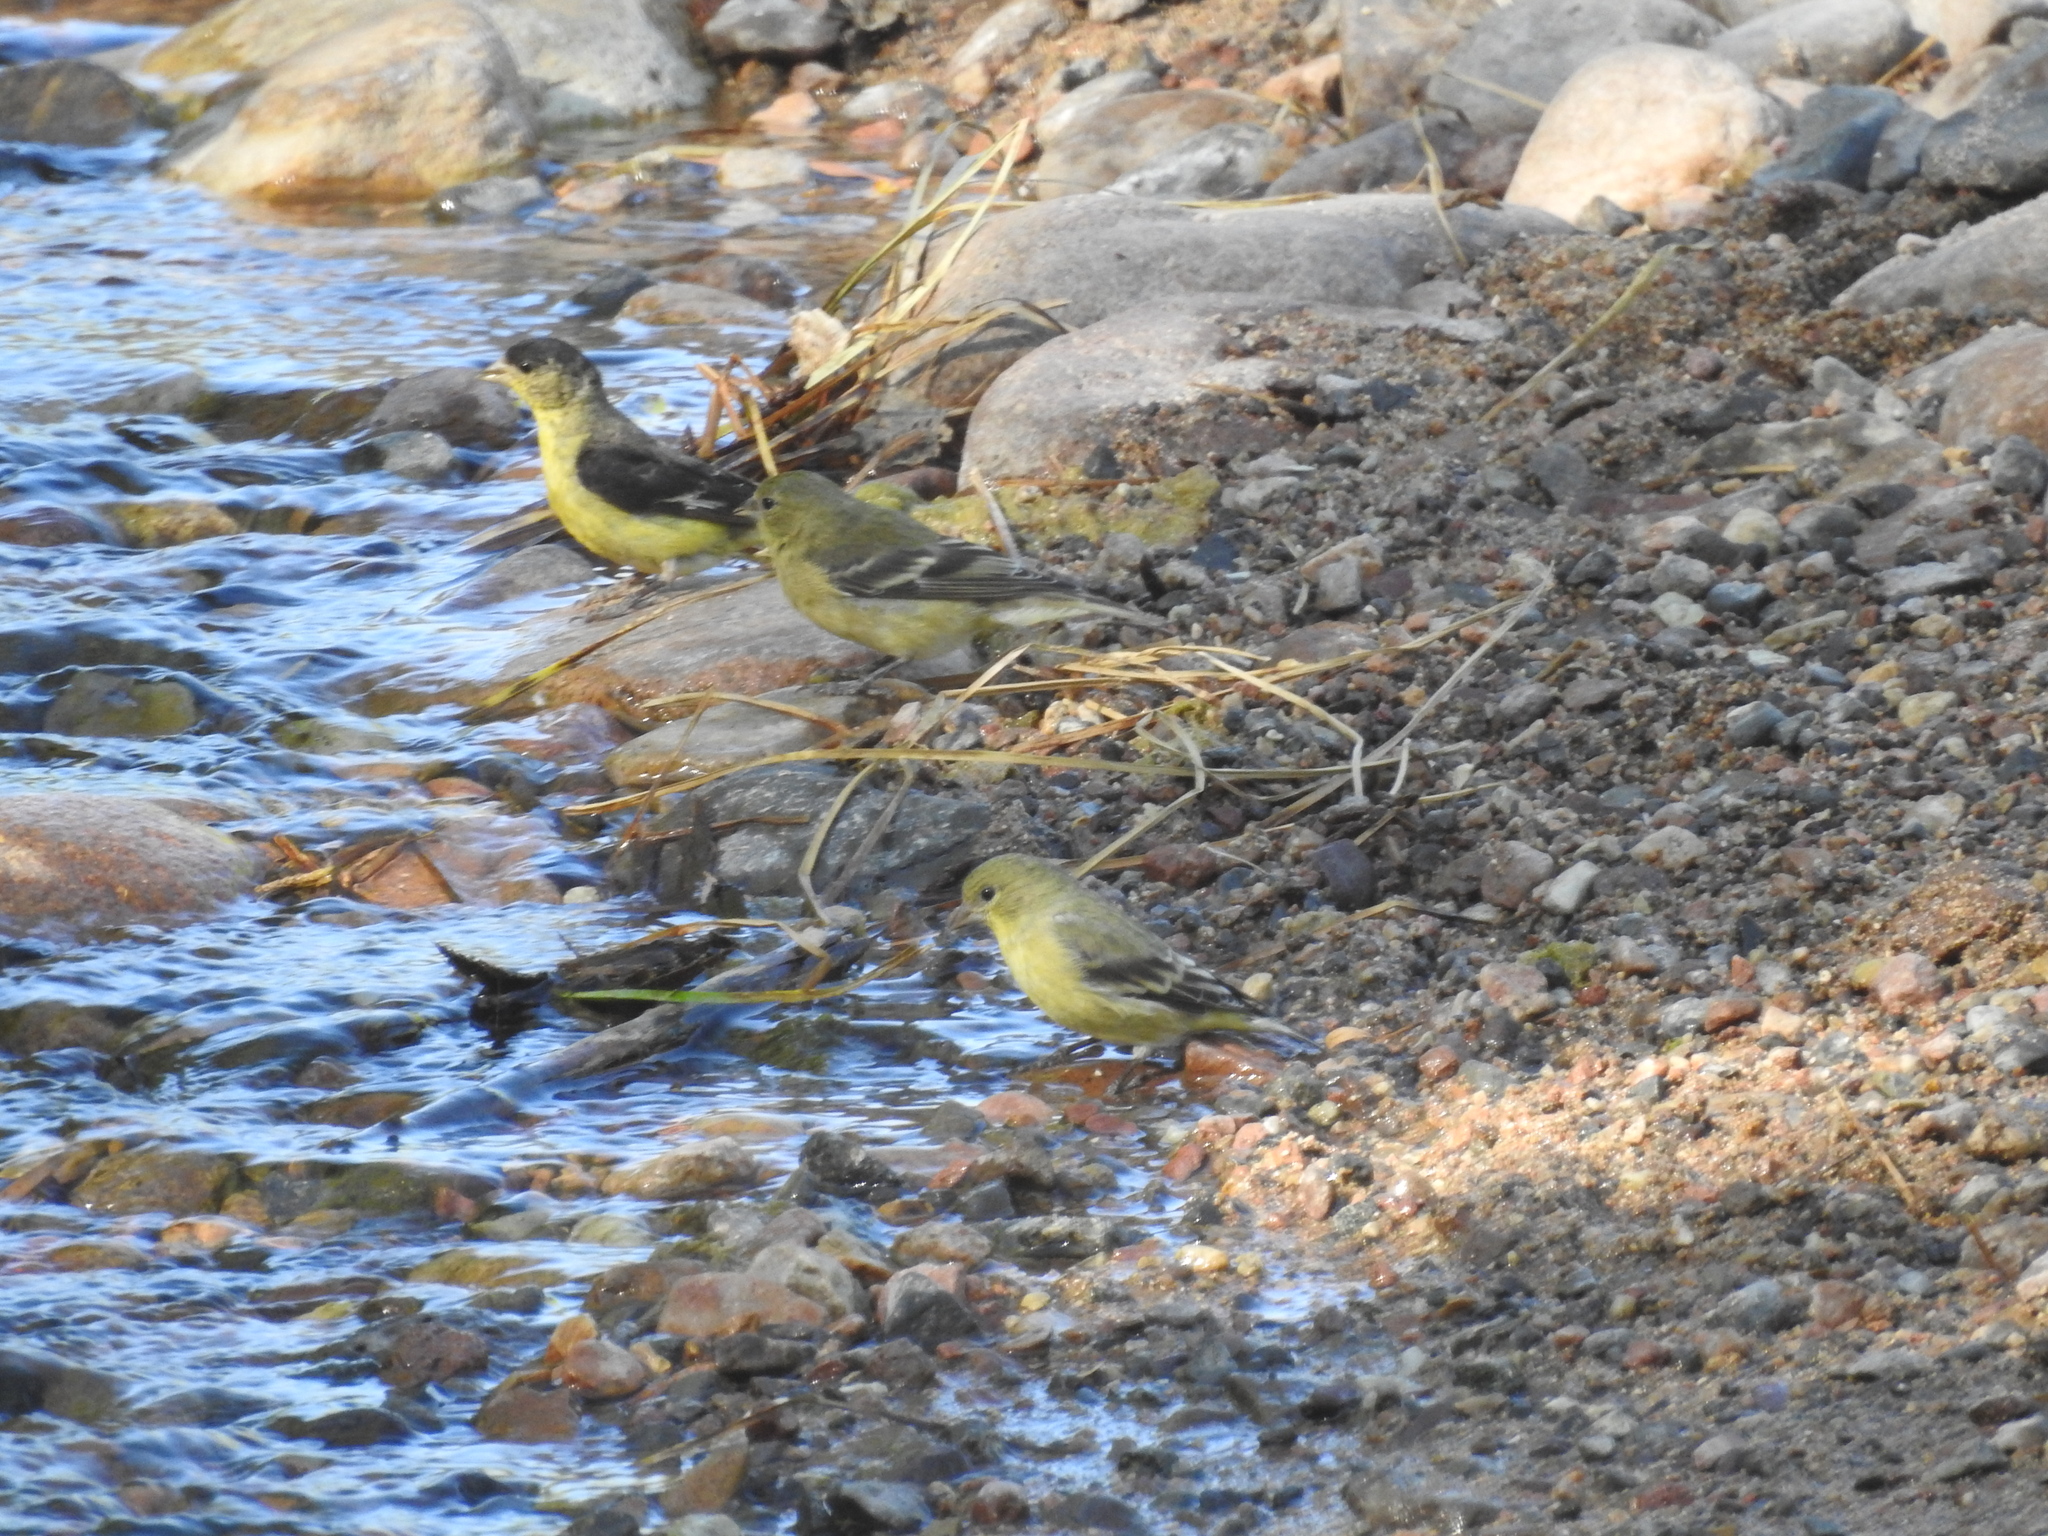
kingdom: Animalia
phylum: Chordata
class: Aves
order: Passeriformes
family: Fringillidae
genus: Spinus
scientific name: Spinus psaltria
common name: Lesser goldfinch
